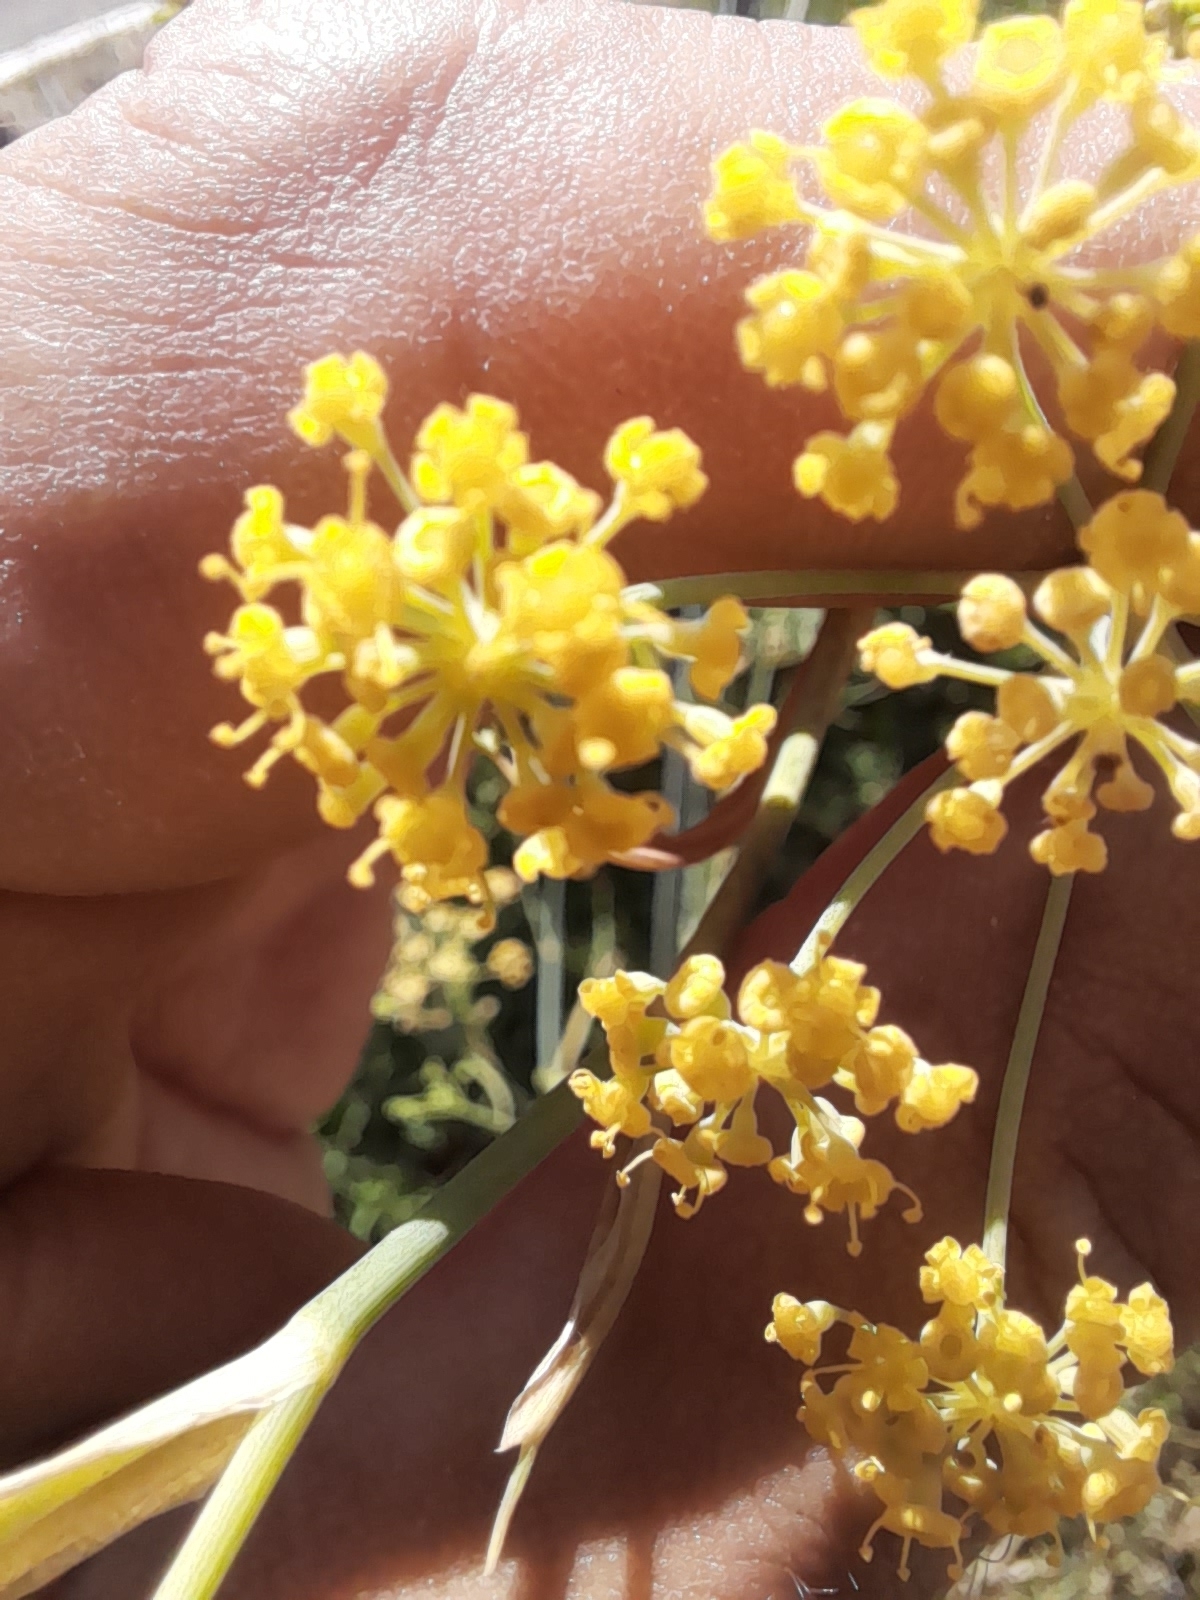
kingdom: Plantae
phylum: Tracheophyta
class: Magnoliopsida
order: Apiales
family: Apiaceae
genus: Foeniculum
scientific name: Foeniculum vulgare
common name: Fennel
